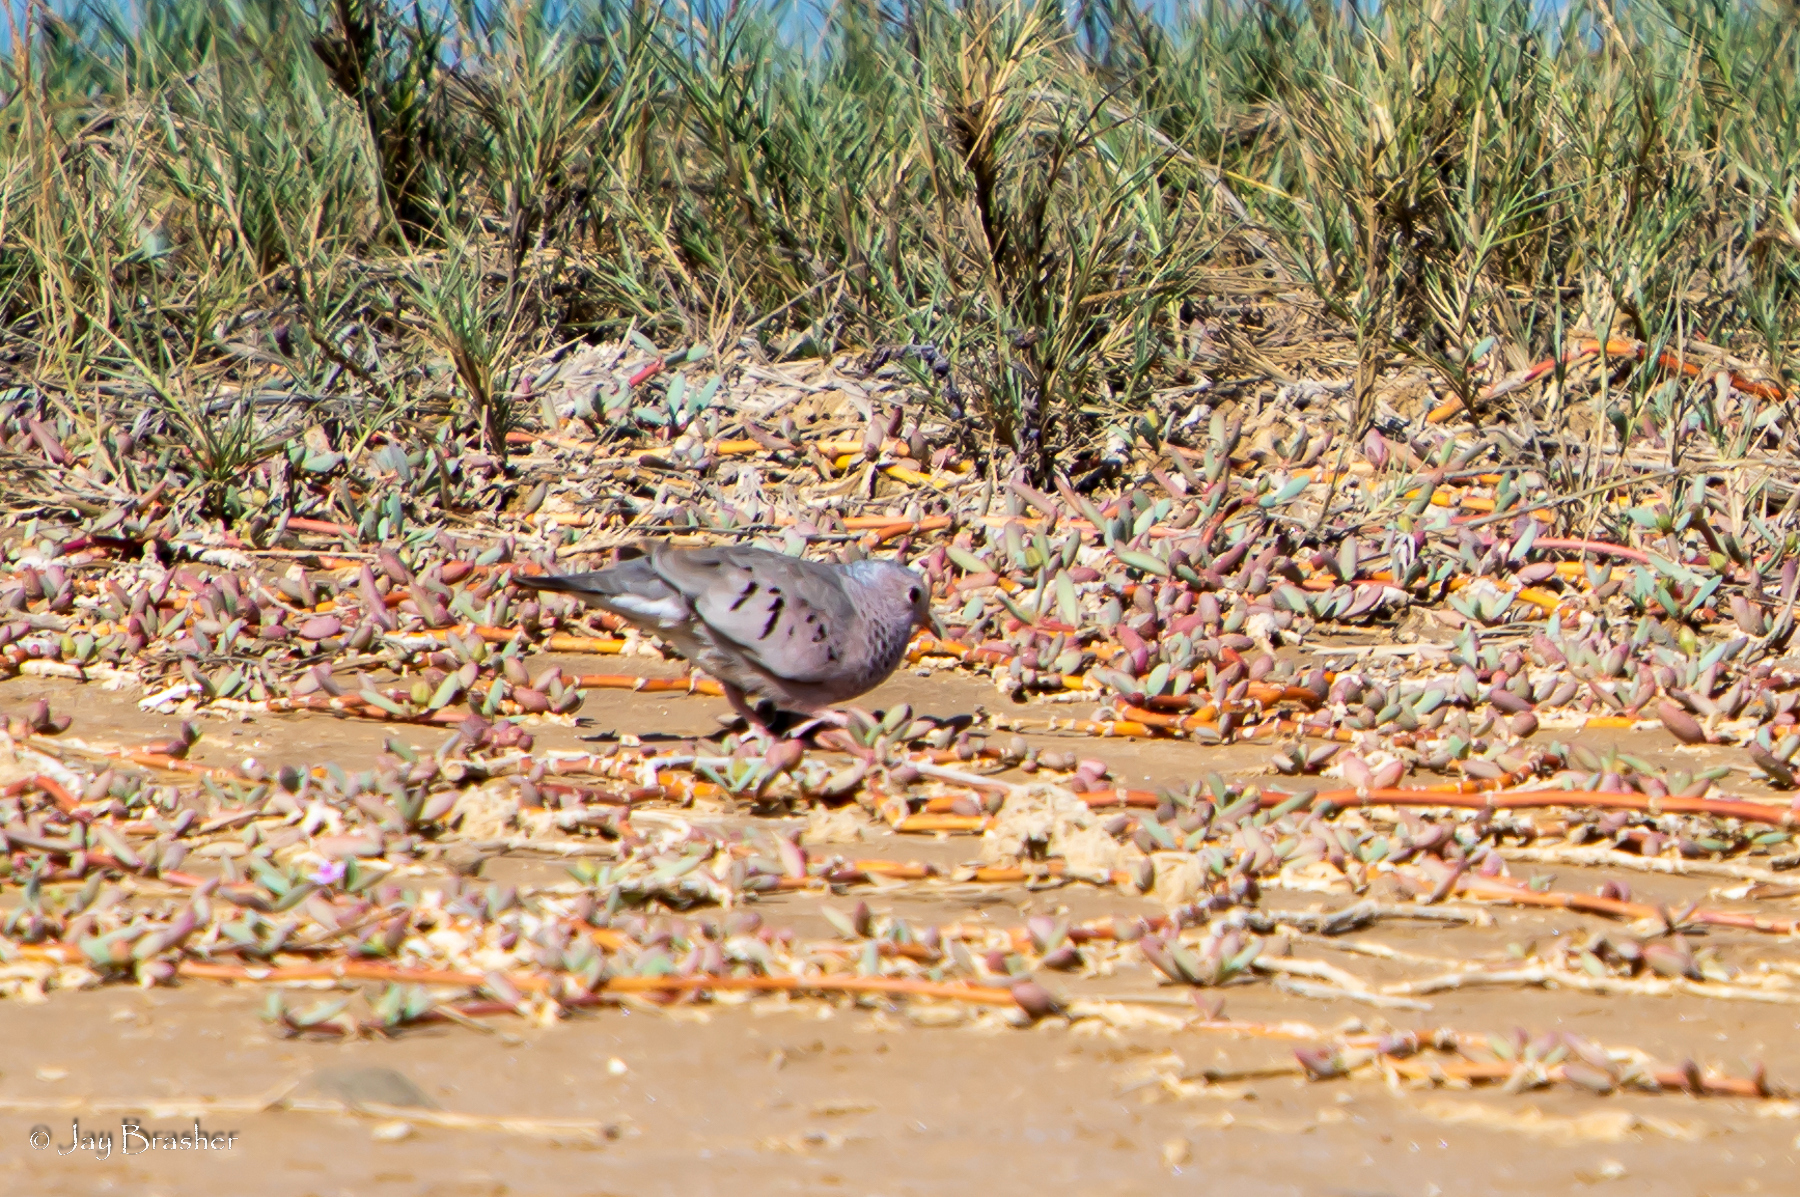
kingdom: Animalia
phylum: Chordata
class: Aves
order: Columbiformes
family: Columbidae
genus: Columbina
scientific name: Columbina passerina
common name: Common ground-dove
